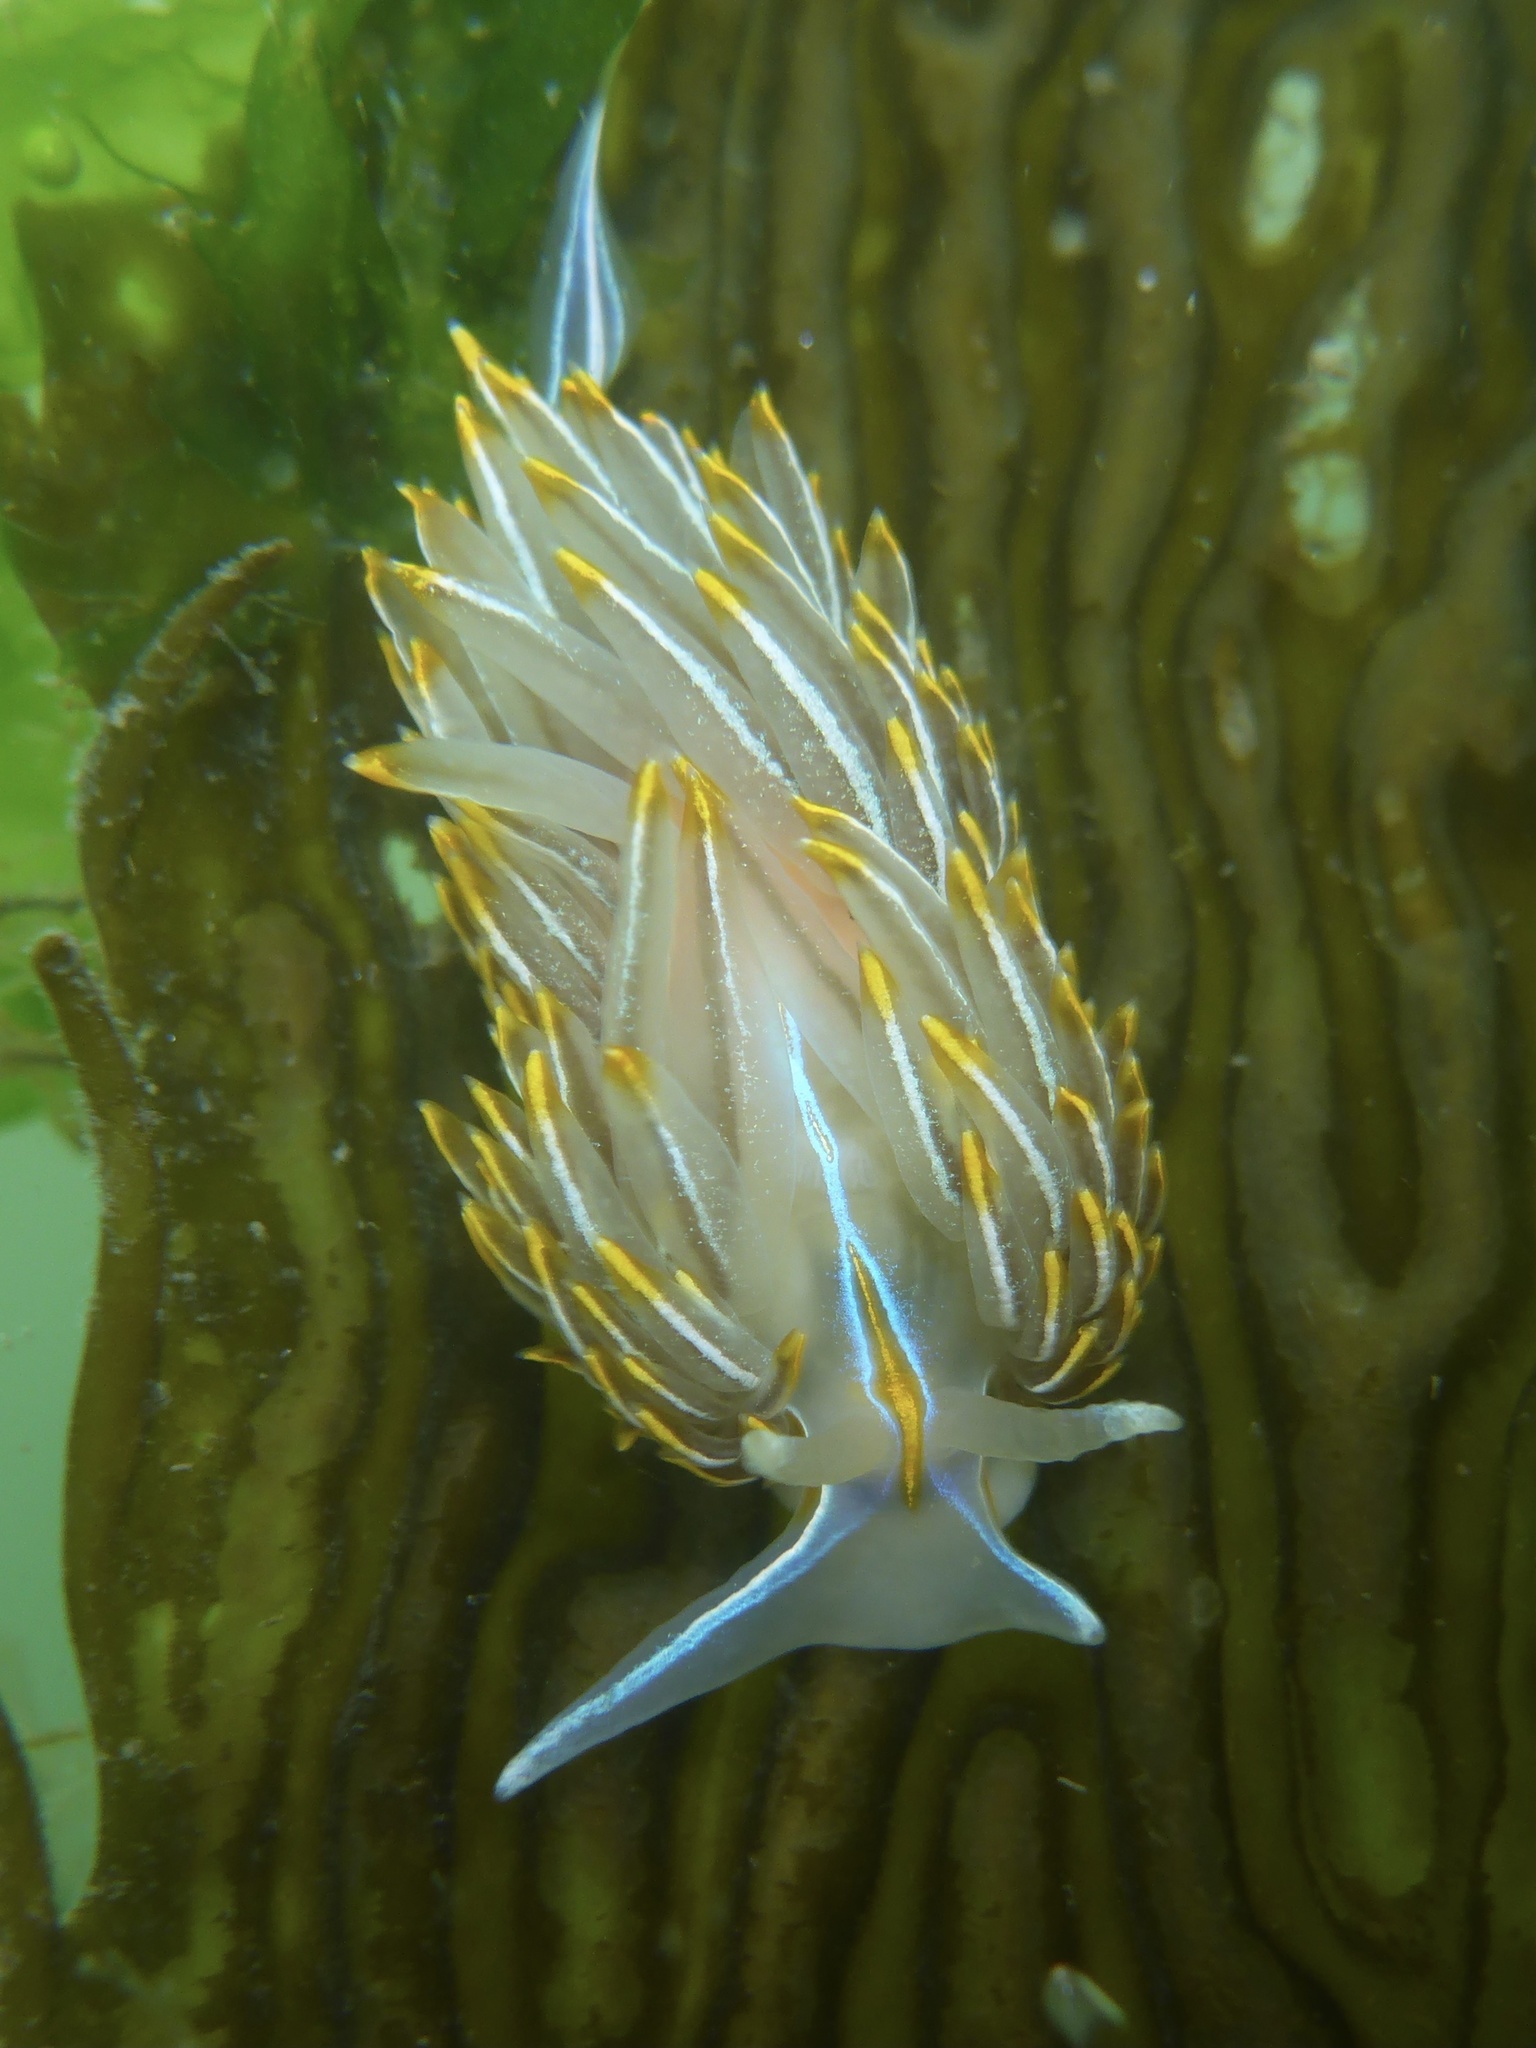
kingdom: Animalia
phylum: Mollusca
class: Gastropoda
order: Nudibranchia
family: Myrrhinidae
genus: Hermissenda
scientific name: Hermissenda crassicornis
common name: Hermissenda
